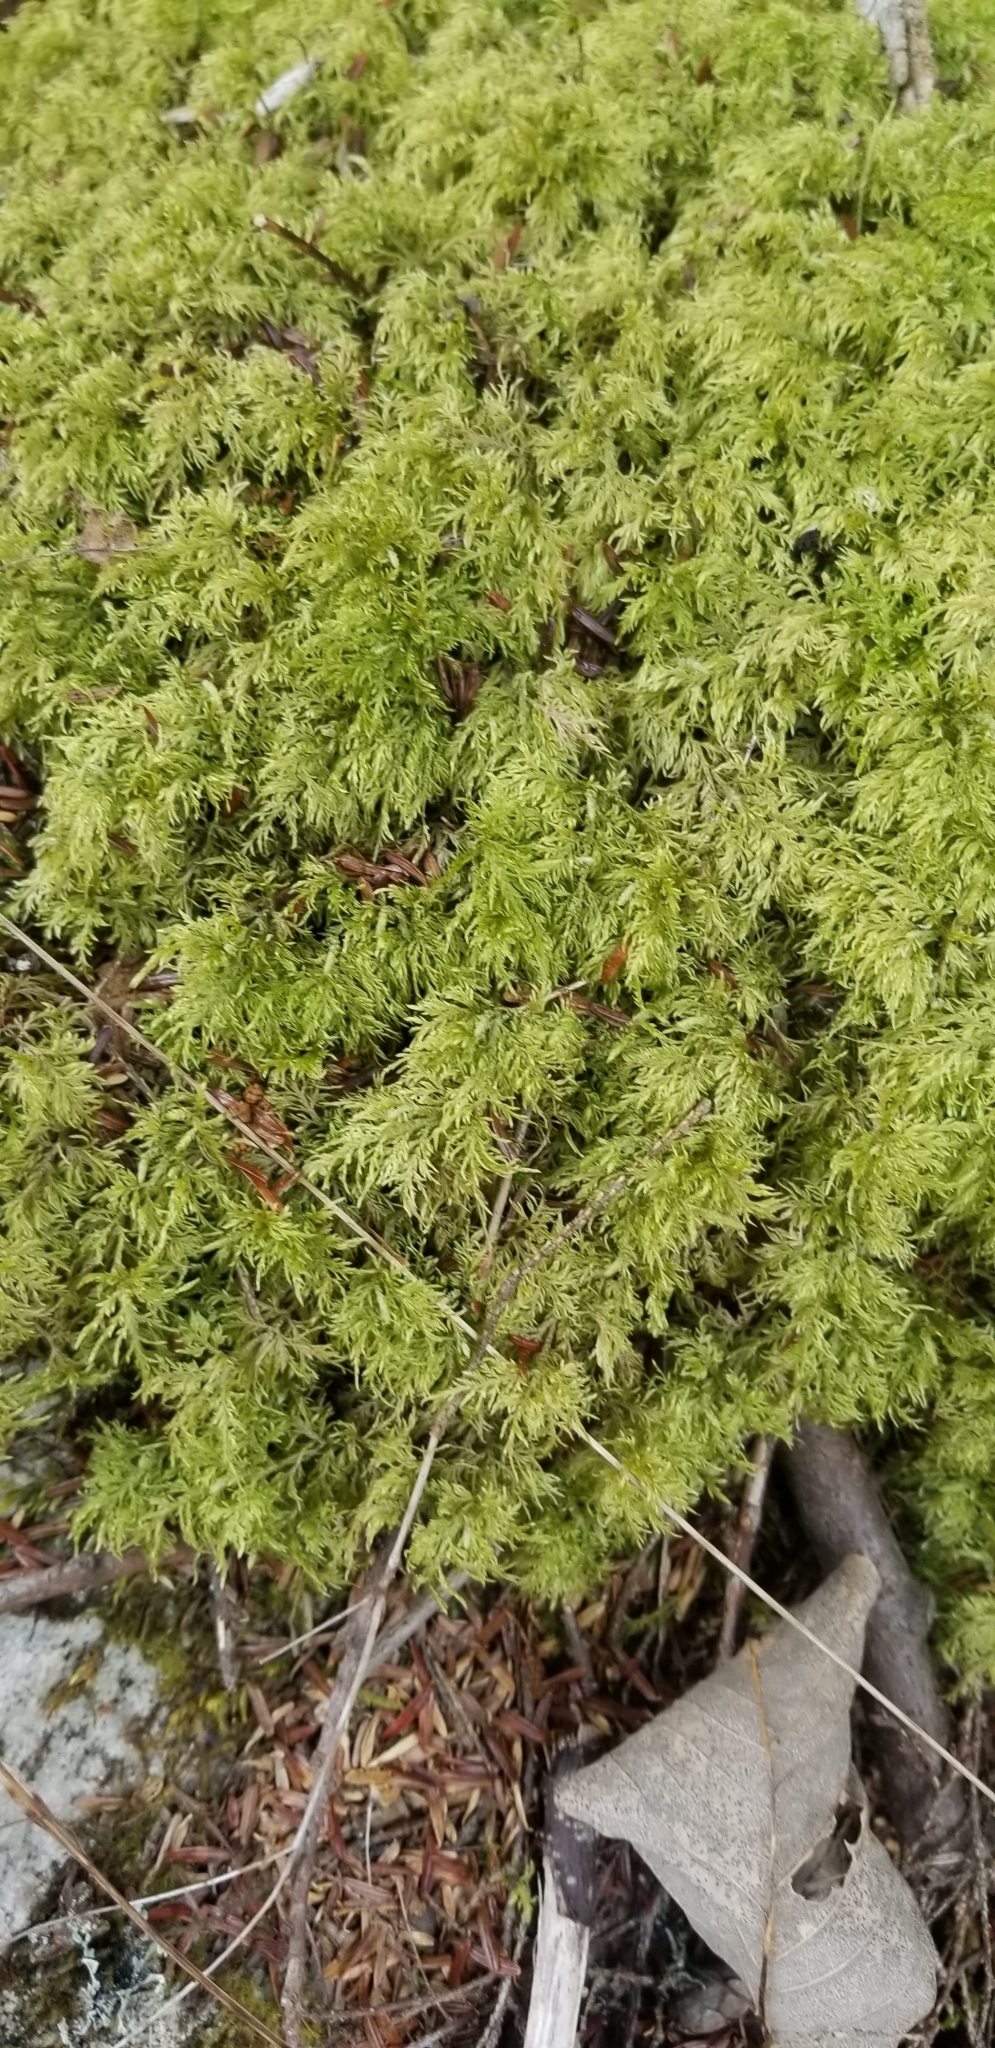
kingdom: Plantae
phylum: Bryophyta
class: Bryopsida
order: Hypnales
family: Hylocomiaceae
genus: Hylocomium
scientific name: Hylocomium splendens
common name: Stairstep moss
